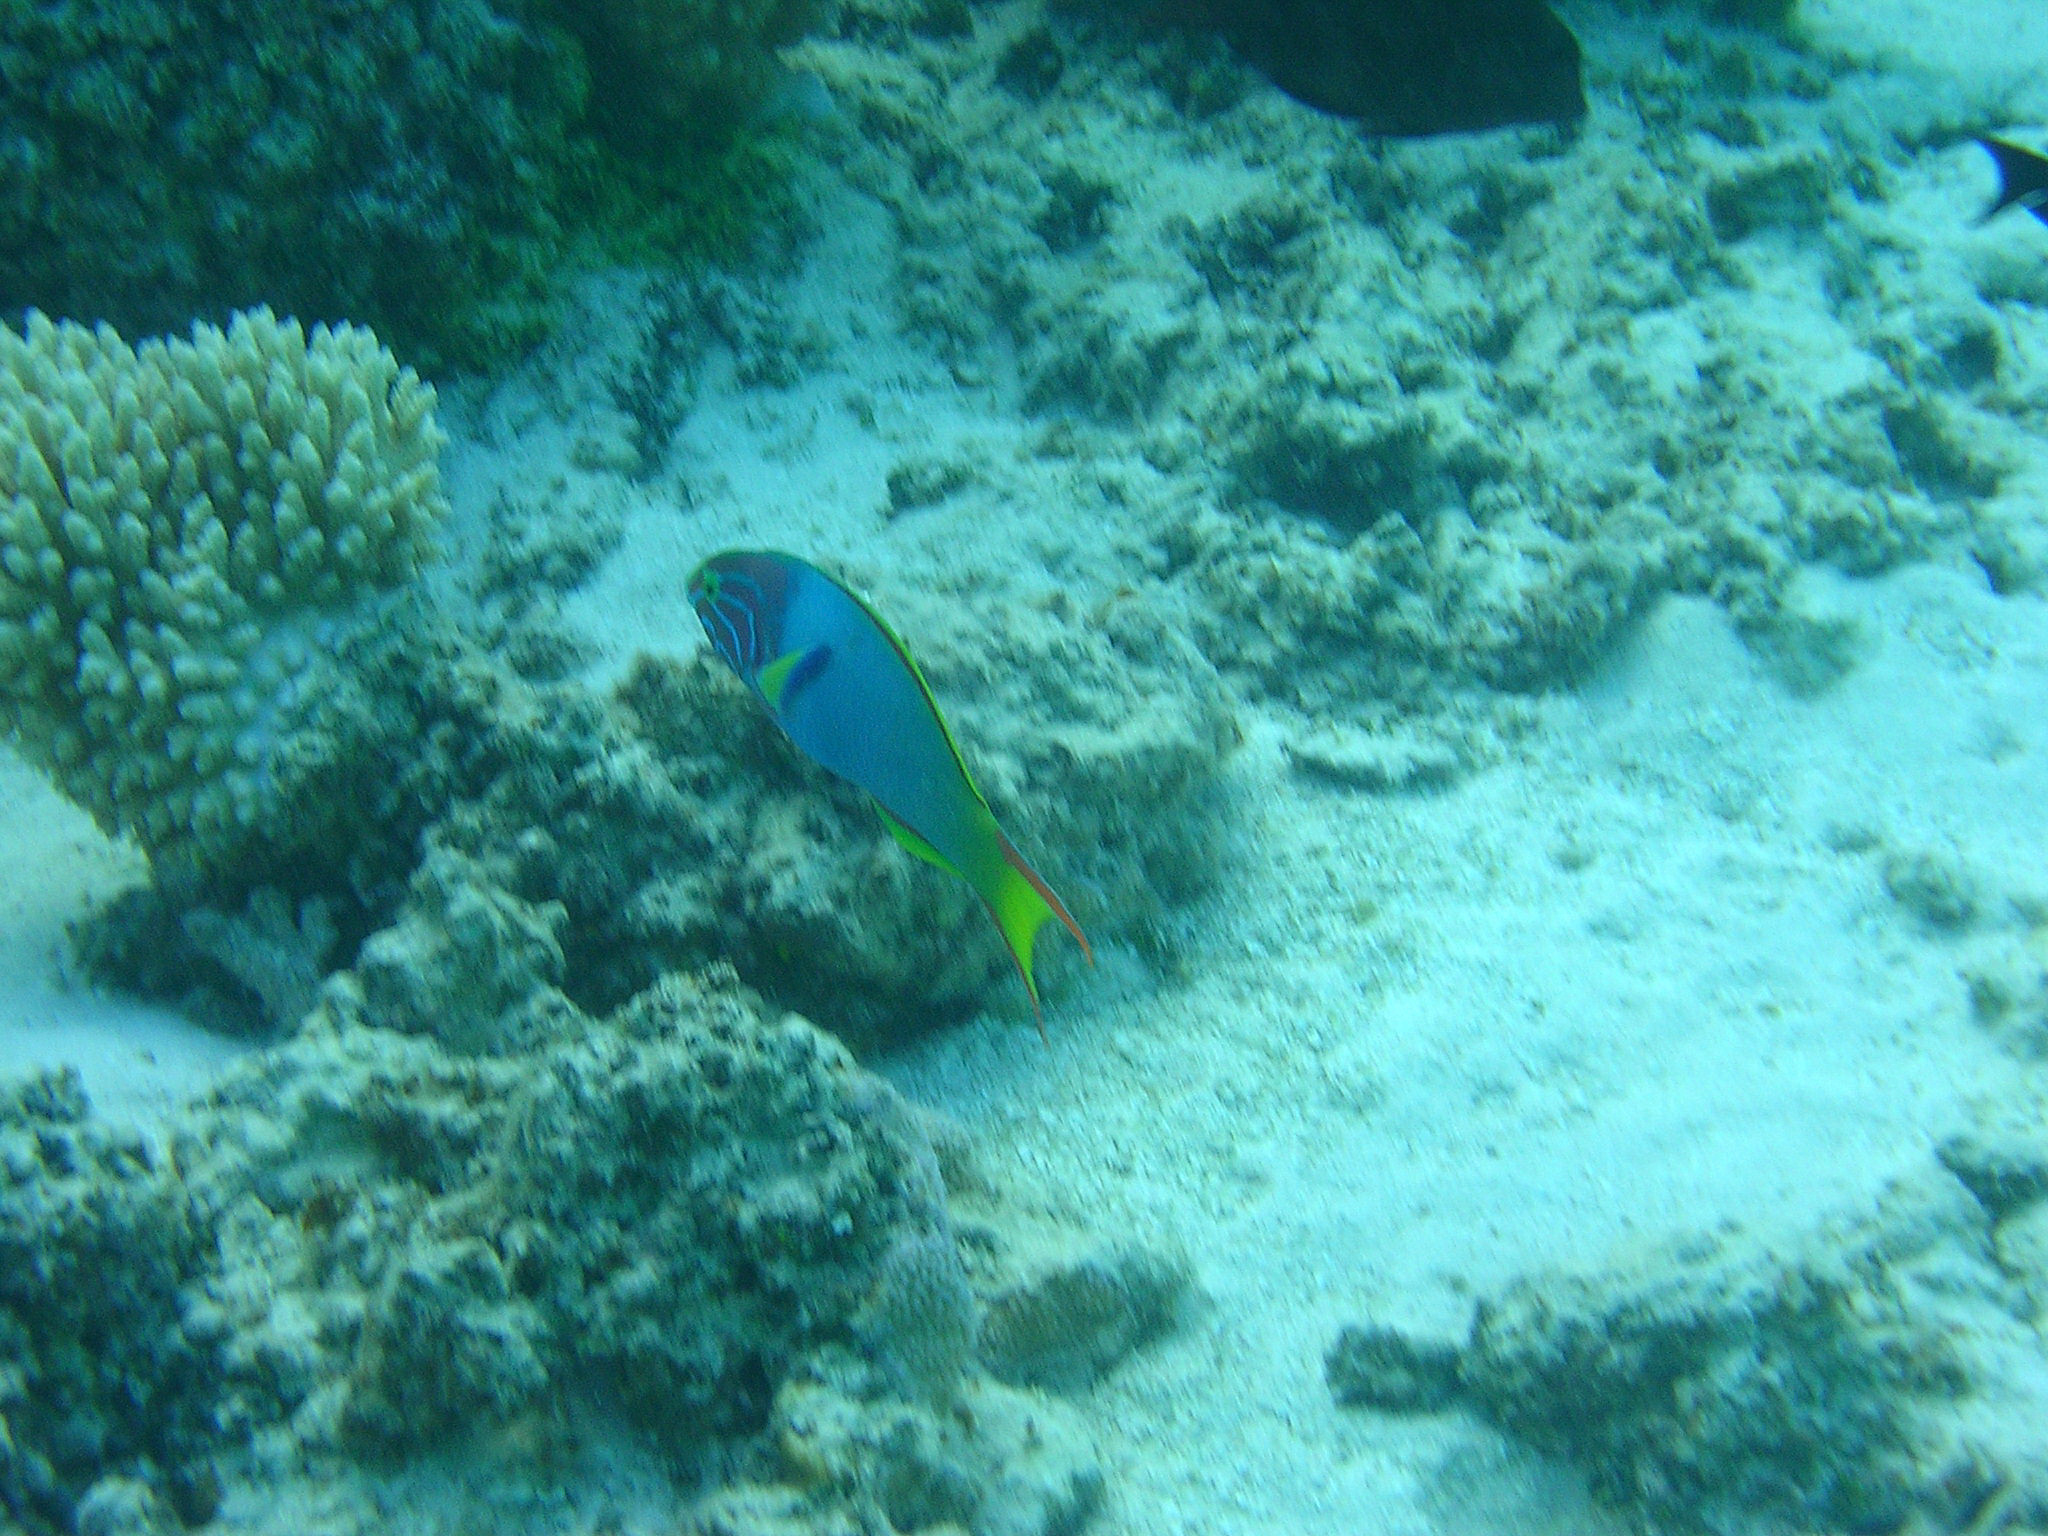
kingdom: Animalia
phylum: Chordata
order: Perciformes
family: Labridae
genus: Thalassoma
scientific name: Thalassoma lutescens
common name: Green moon wrasse
